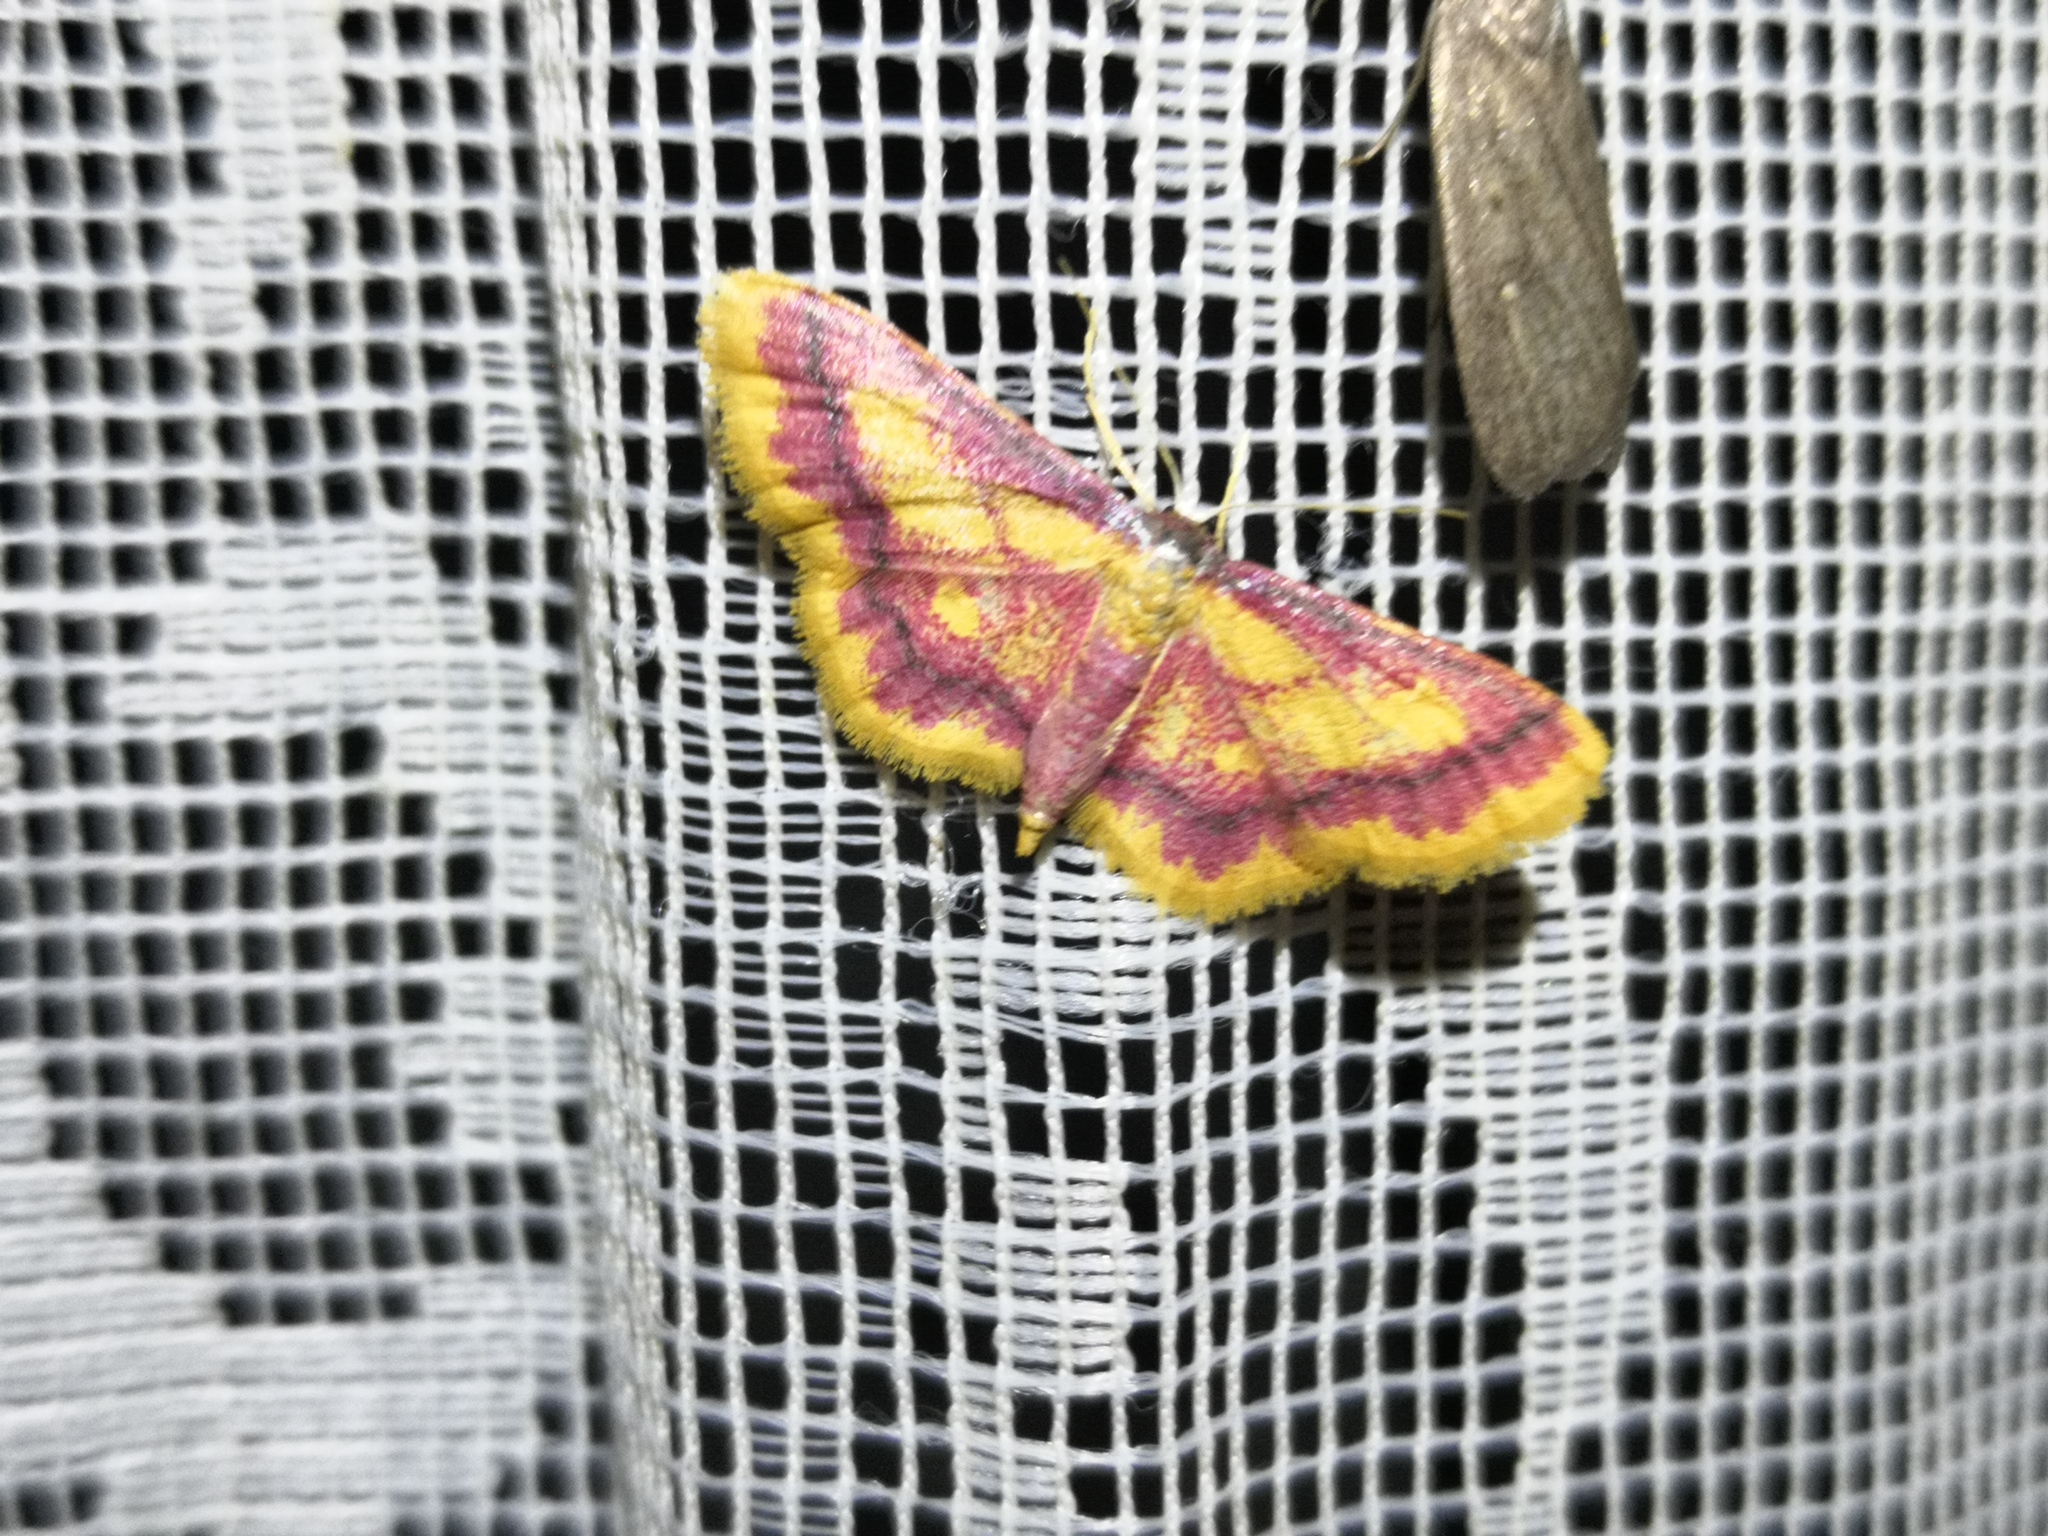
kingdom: Animalia
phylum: Arthropoda
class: Insecta
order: Lepidoptera
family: Geometridae
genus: Idaea
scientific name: Idaea muricata
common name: Purple-bordered gold
